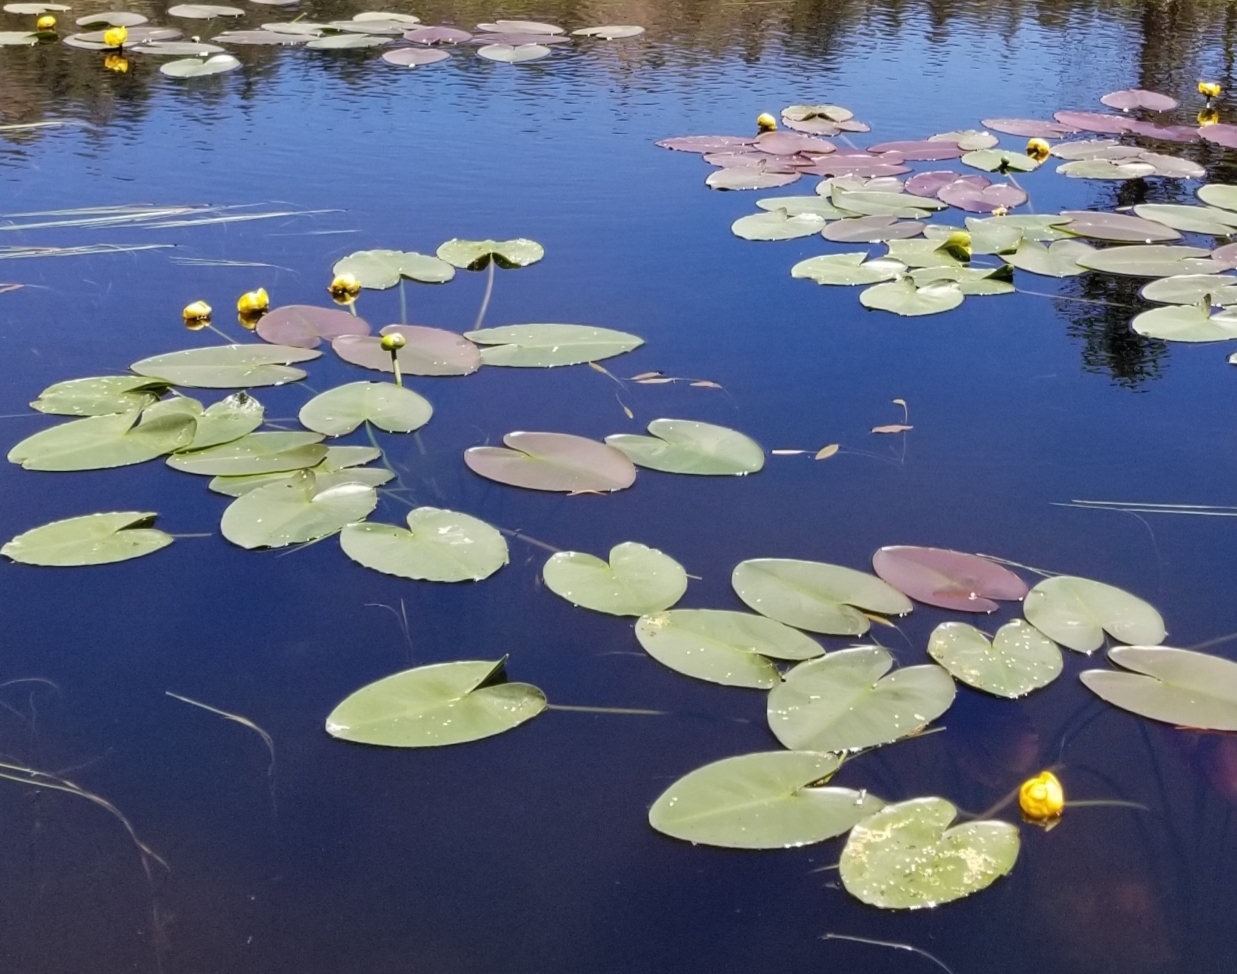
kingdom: Plantae
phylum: Tracheophyta
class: Magnoliopsida
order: Nymphaeales
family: Nymphaeaceae
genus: Nuphar
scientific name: Nuphar polysepala
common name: Rocky mountain cow-lily
